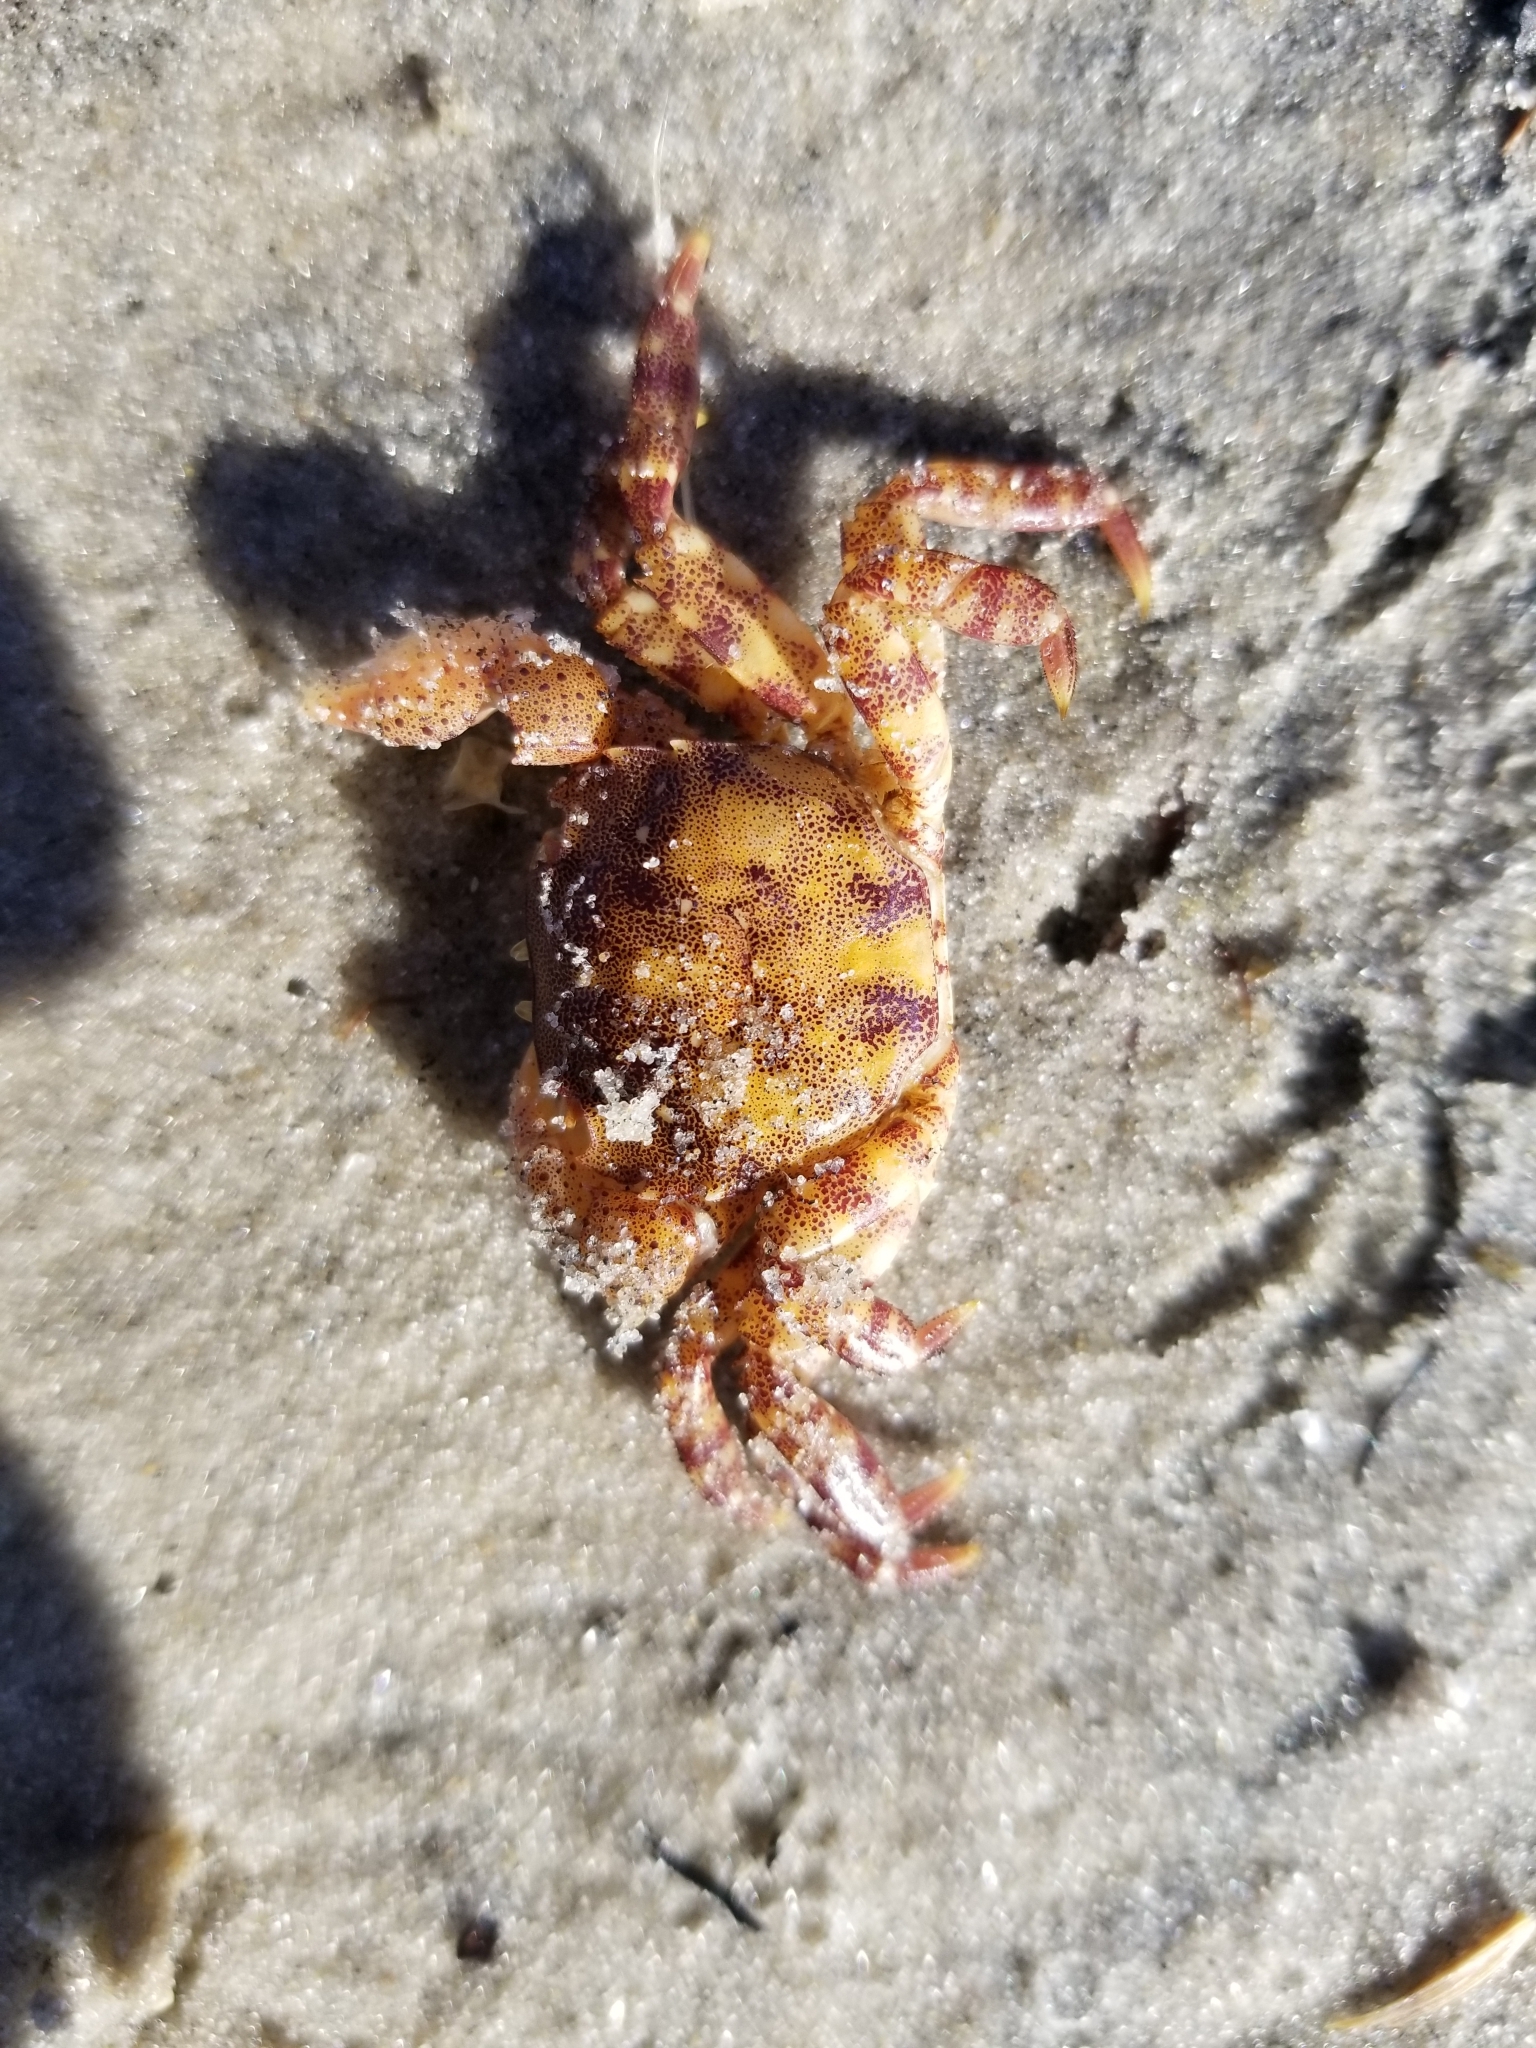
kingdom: Animalia
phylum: Arthropoda
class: Malacostraca
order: Decapoda
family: Varunidae
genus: Hemigrapsus
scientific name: Hemigrapsus sanguineus
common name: Asian shore crab
